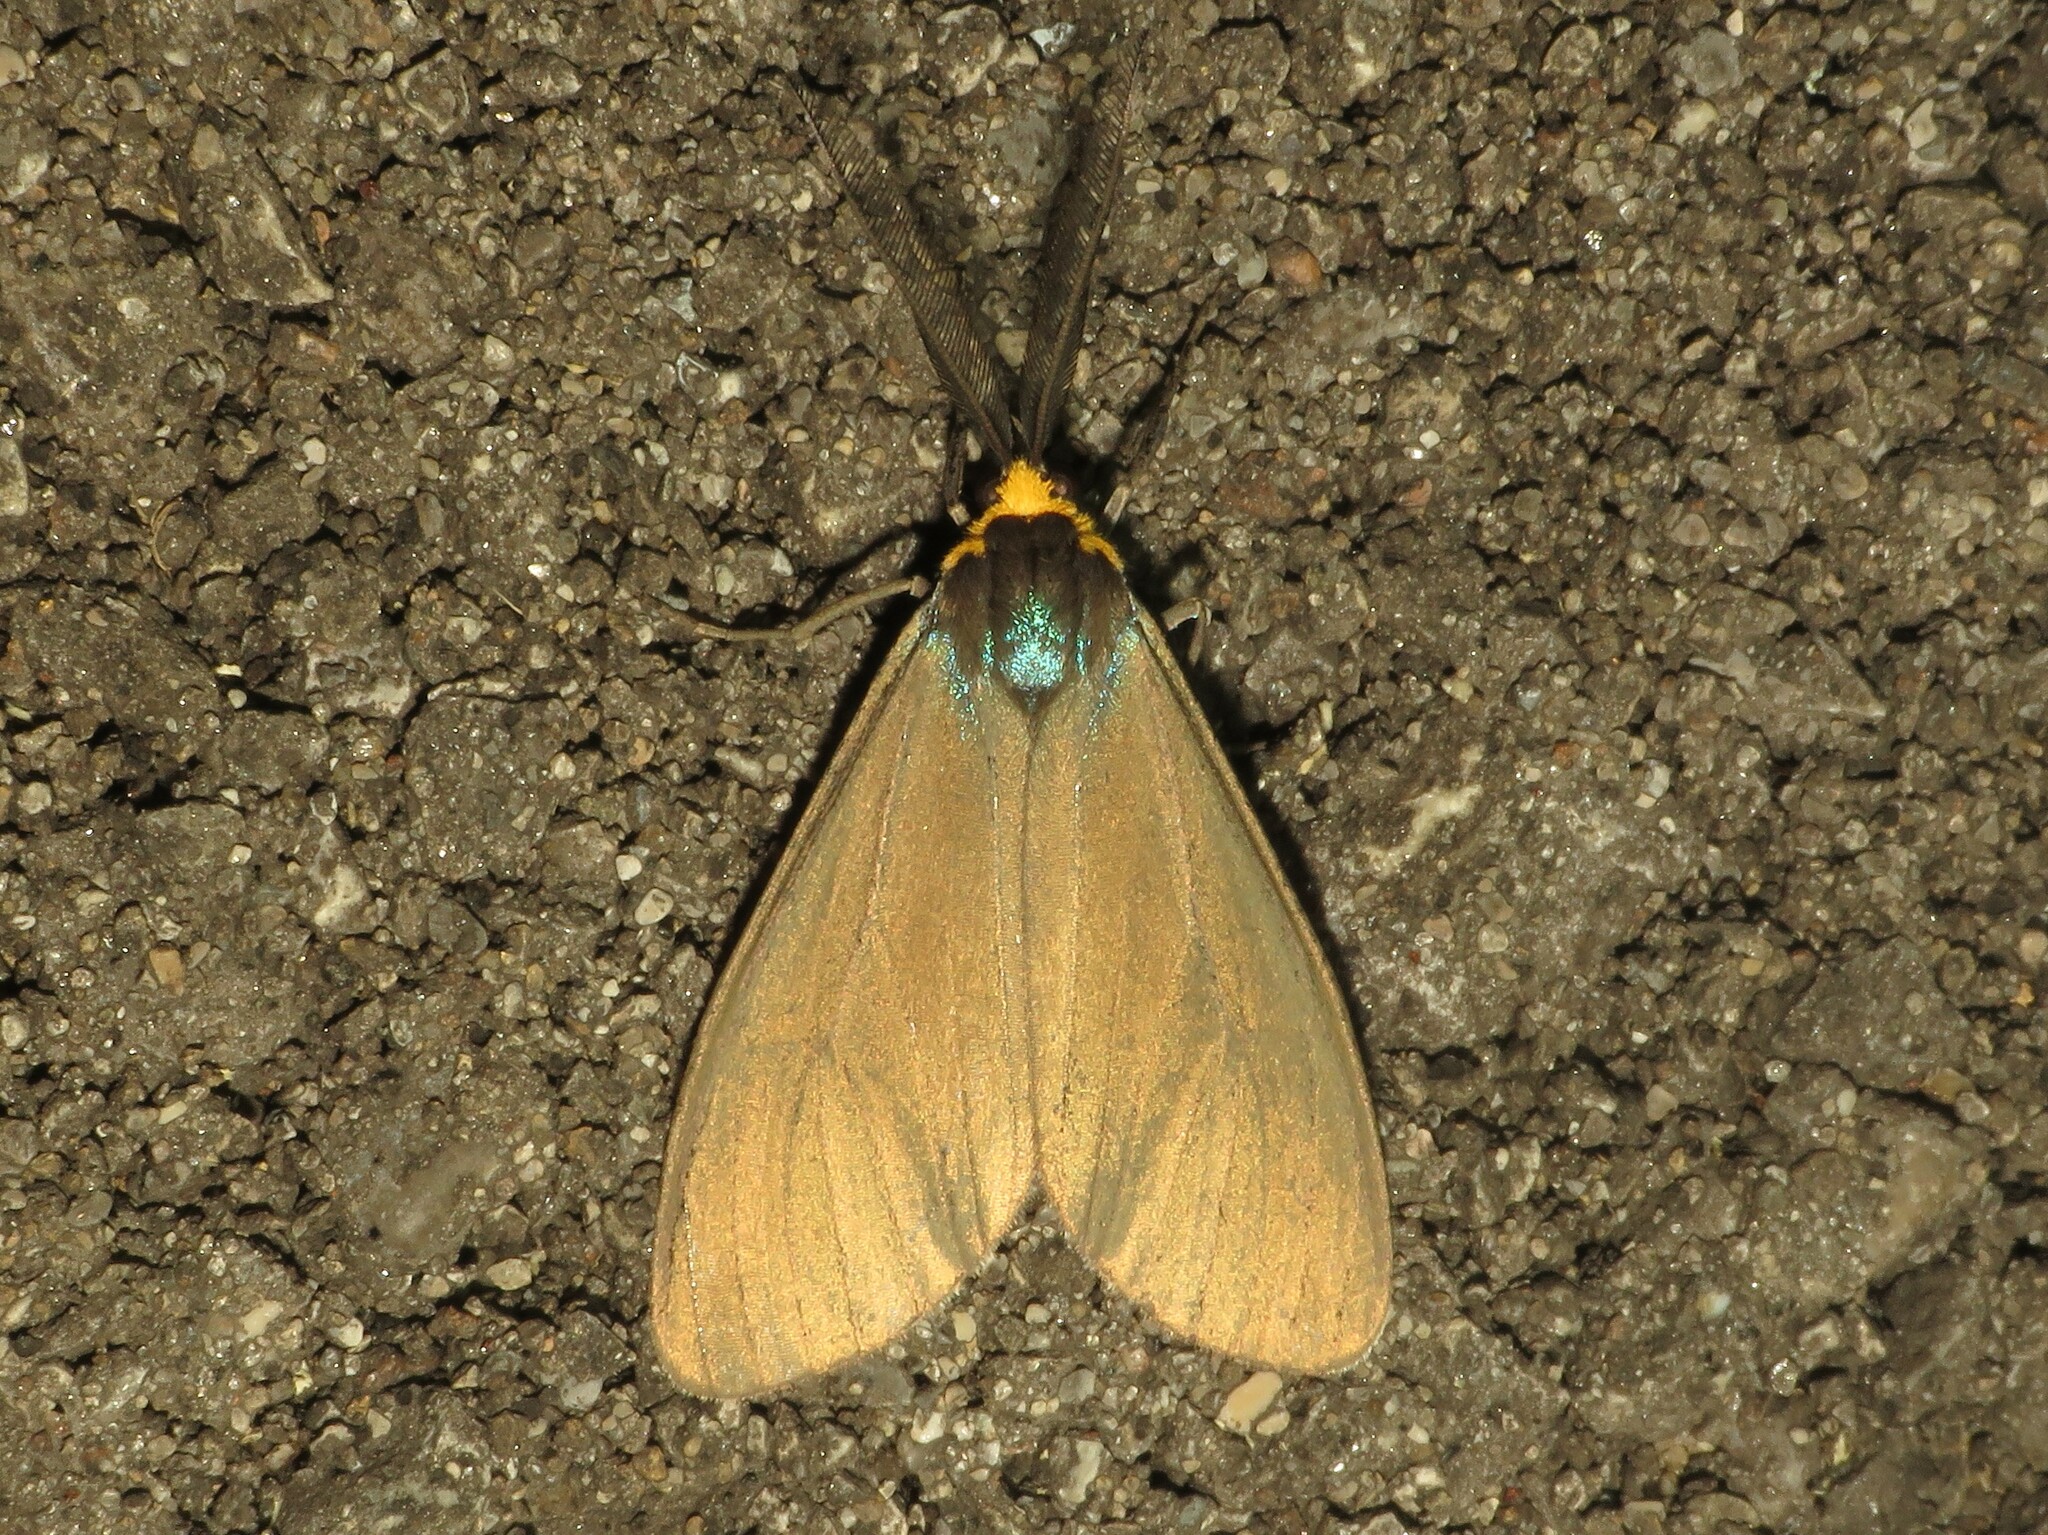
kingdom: Animalia
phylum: Arthropoda
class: Insecta
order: Lepidoptera
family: Erebidae
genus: Ctenucha
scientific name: Ctenucha virginica
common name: Virginia ctenucha moth
